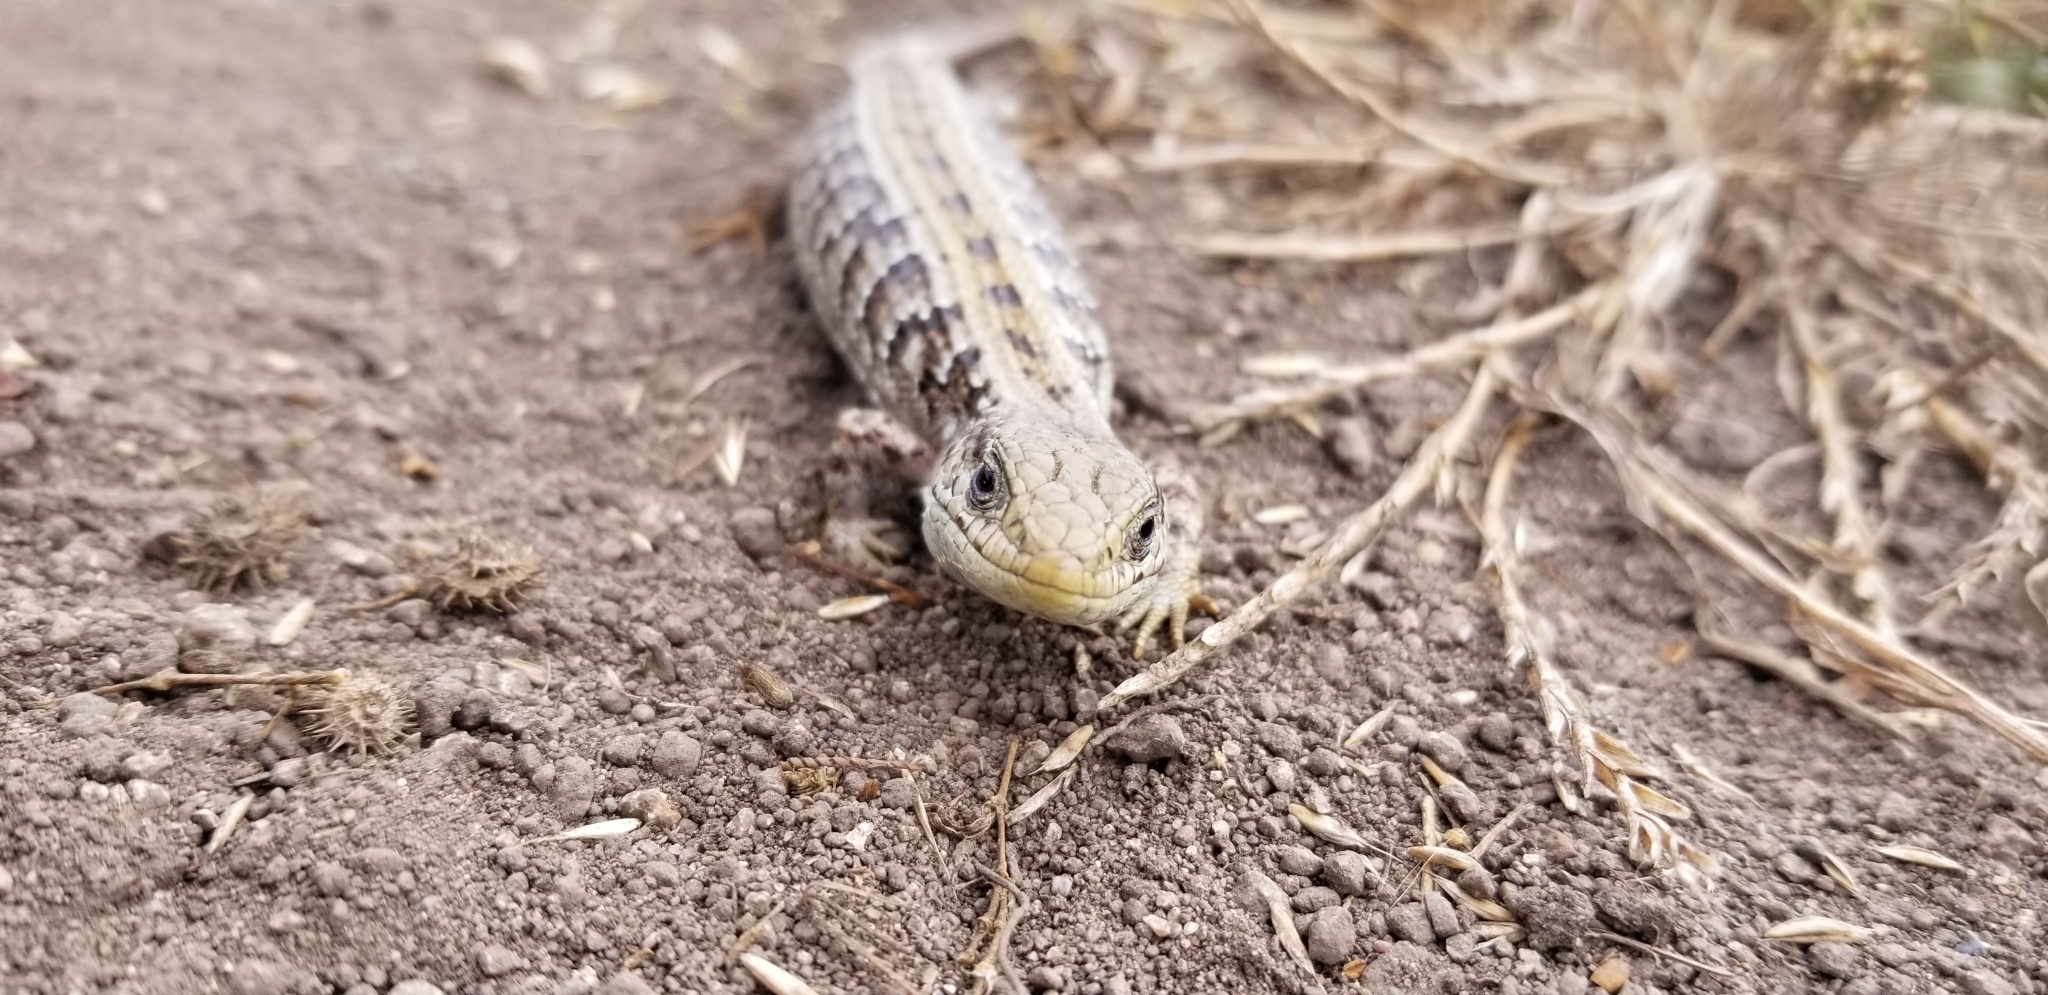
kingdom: Animalia
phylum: Chordata
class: Squamata
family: Anguidae
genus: Elgaria
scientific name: Elgaria coerulea
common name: Northern alligator lizard
